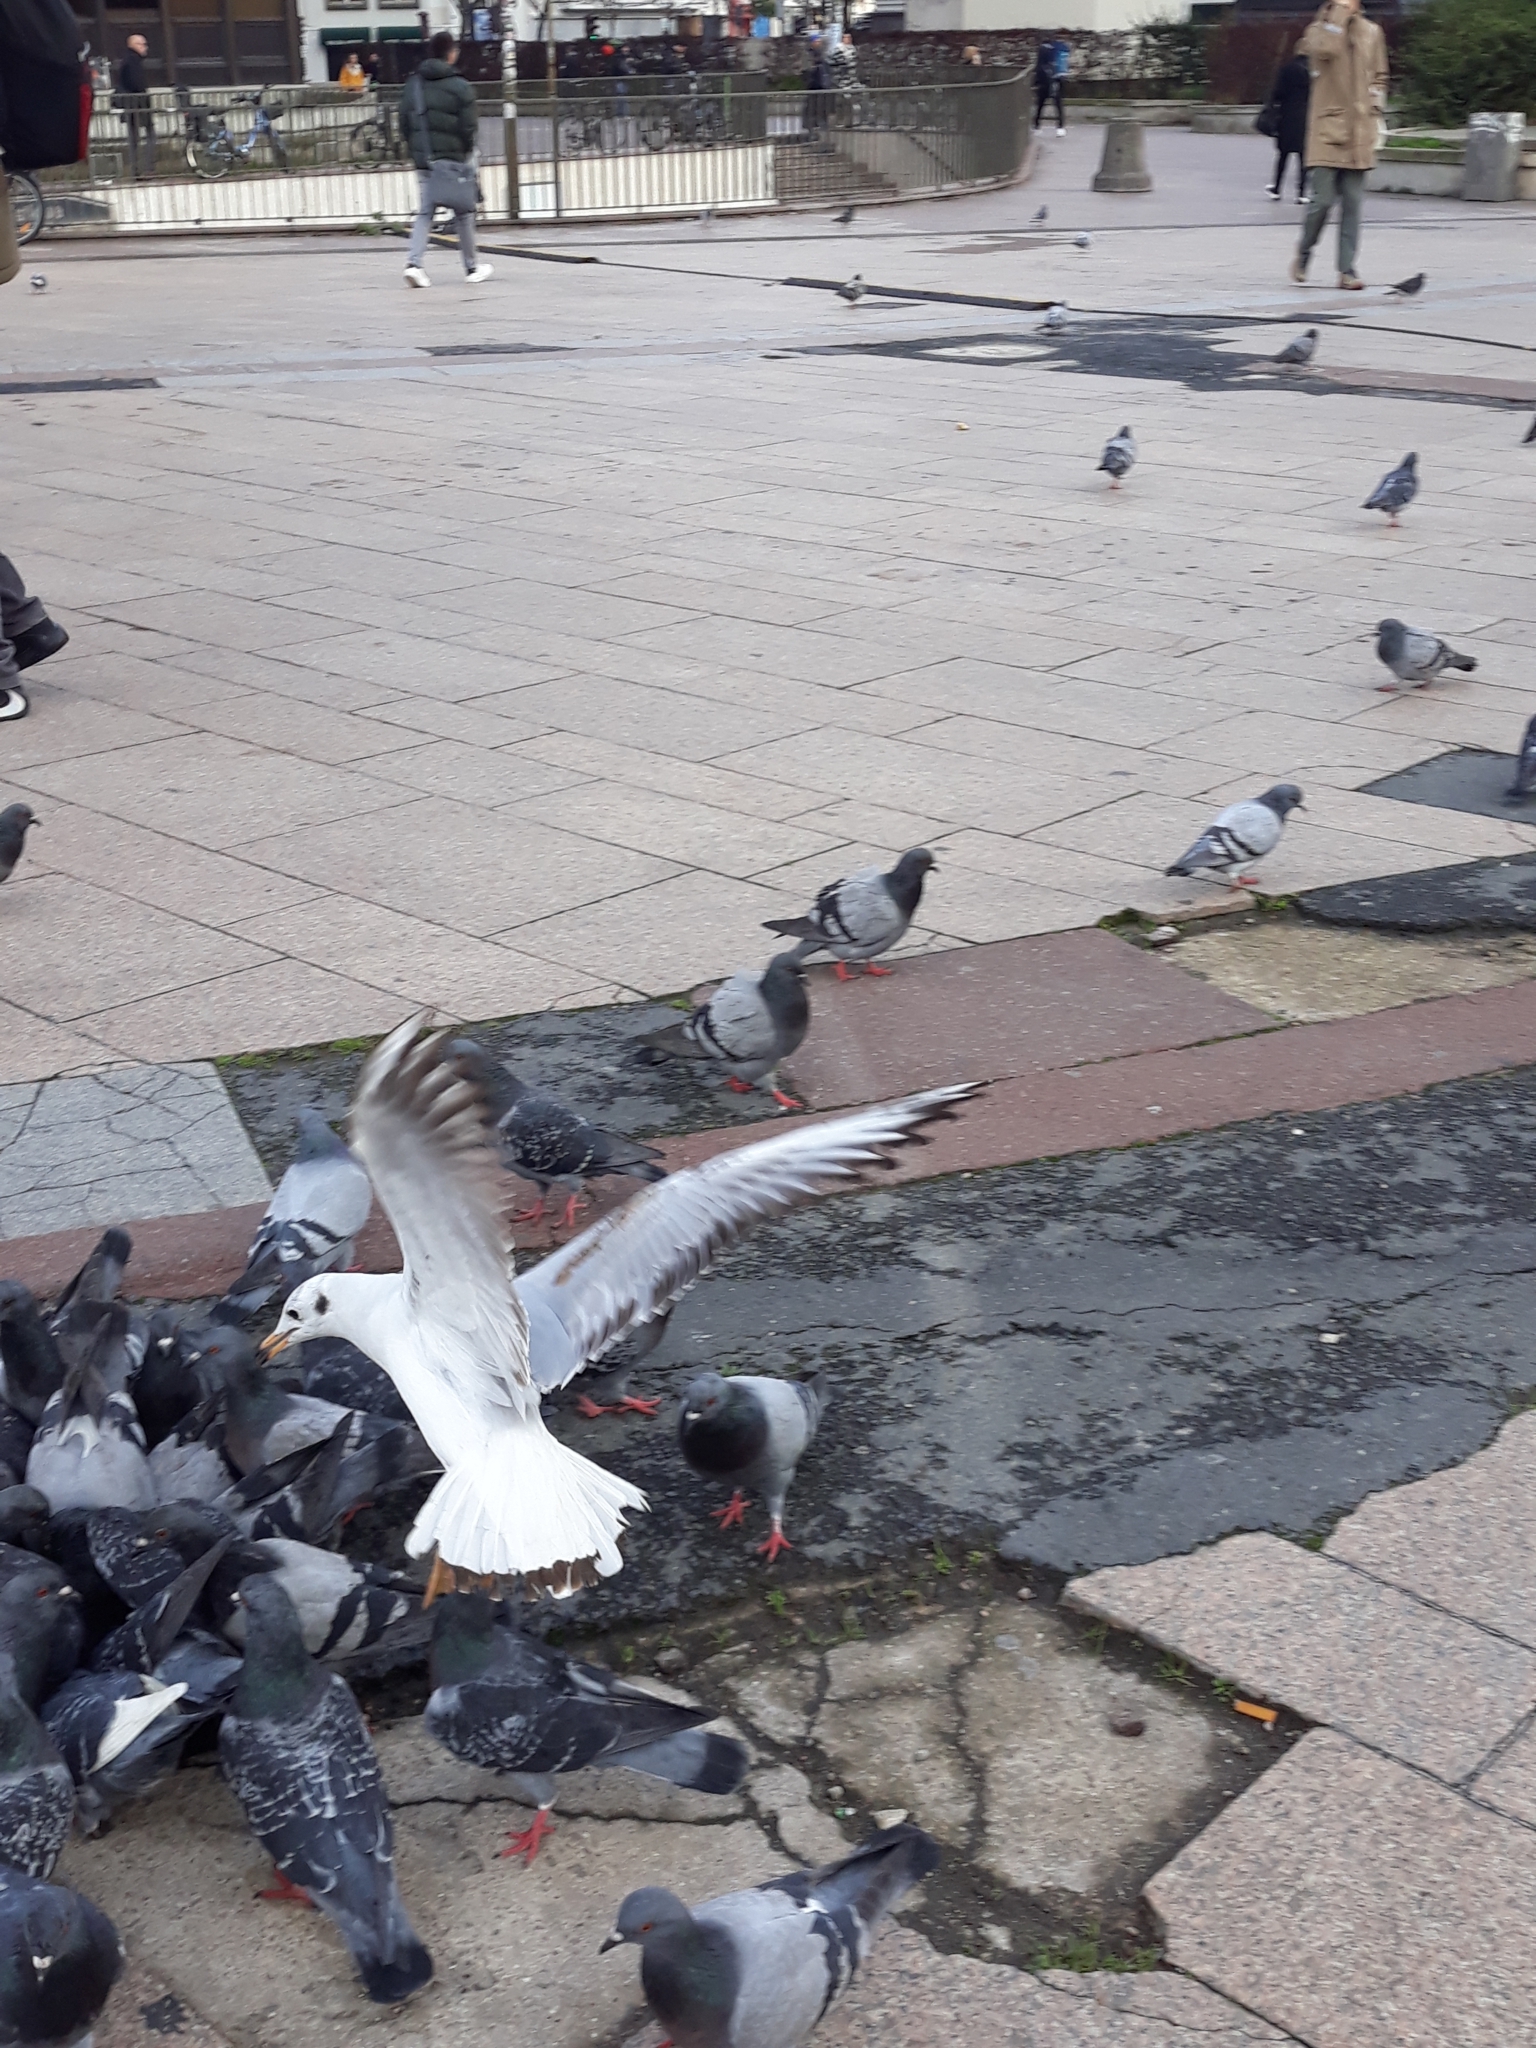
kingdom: Animalia
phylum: Chordata
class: Aves
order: Charadriiformes
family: Laridae
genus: Chroicocephalus
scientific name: Chroicocephalus ridibundus
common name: Black-headed gull
